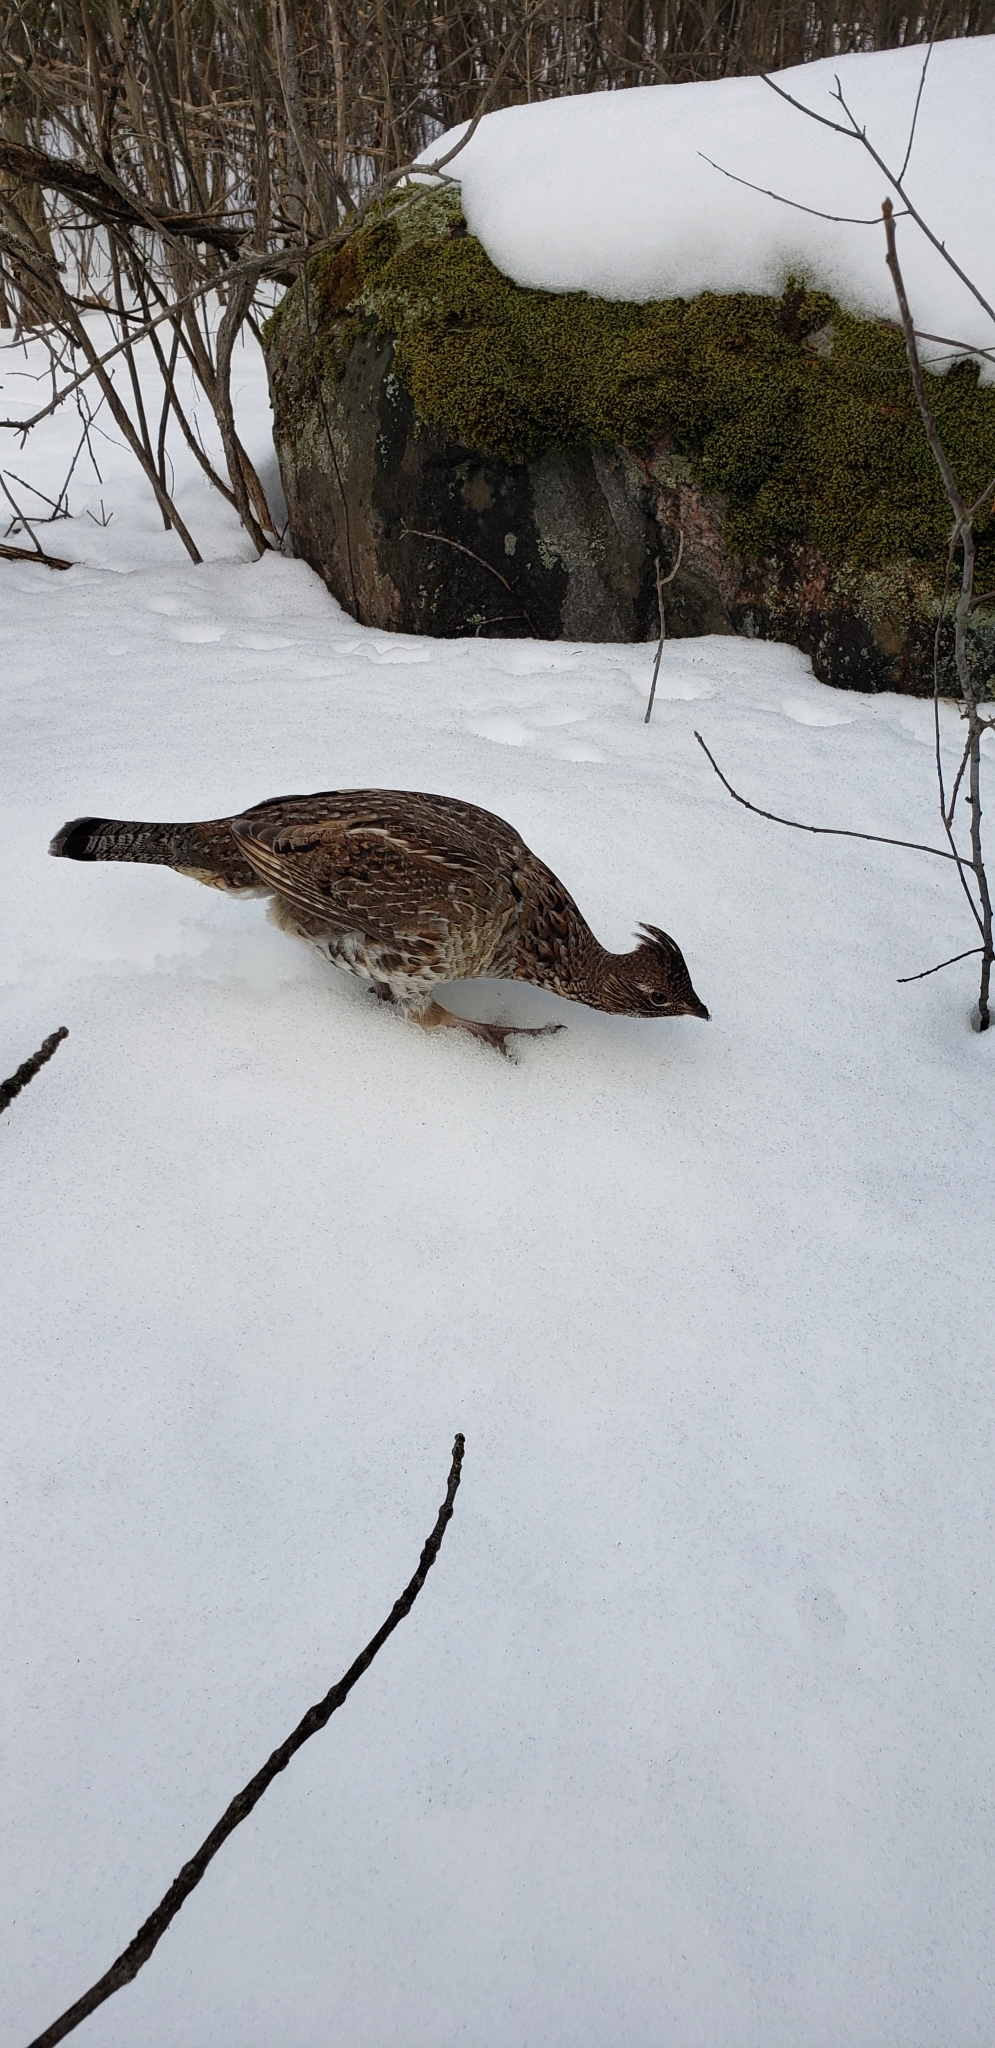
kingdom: Animalia
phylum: Chordata
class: Aves
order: Galliformes
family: Phasianidae
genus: Bonasa
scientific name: Bonasa umbellus
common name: Ruffed grouse
